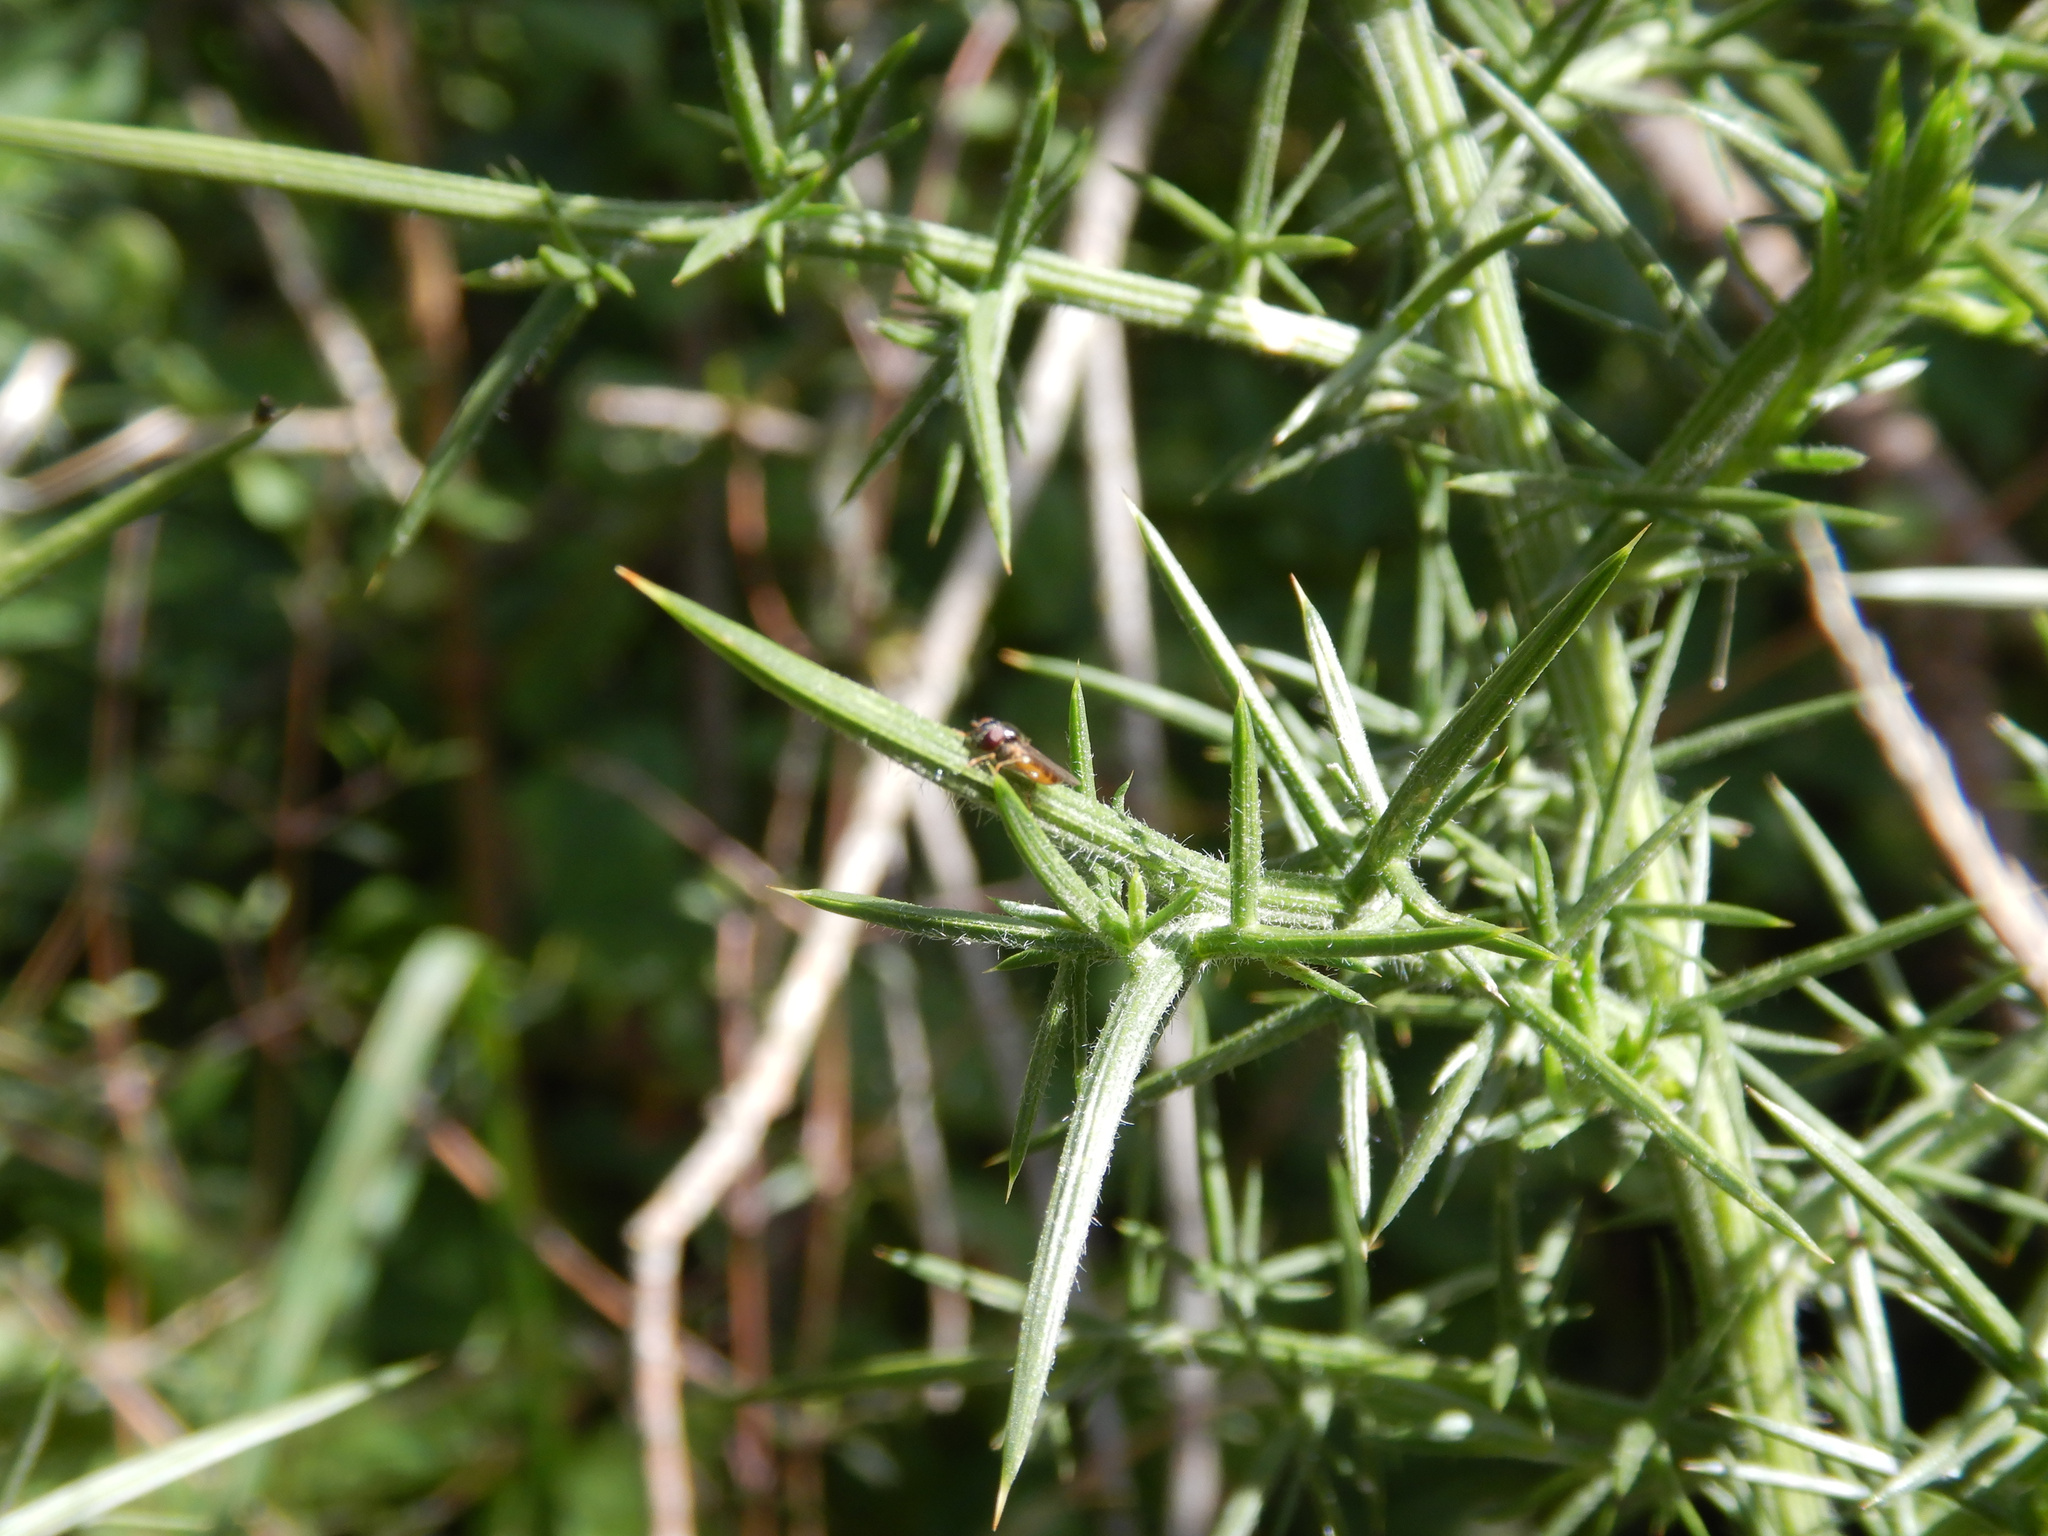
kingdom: Plantae
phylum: Tracheophyta
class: Magnoliopsida
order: Fabales
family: Fabaceae
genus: Ulex
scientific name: Ulex europaeus
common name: Common gorse
